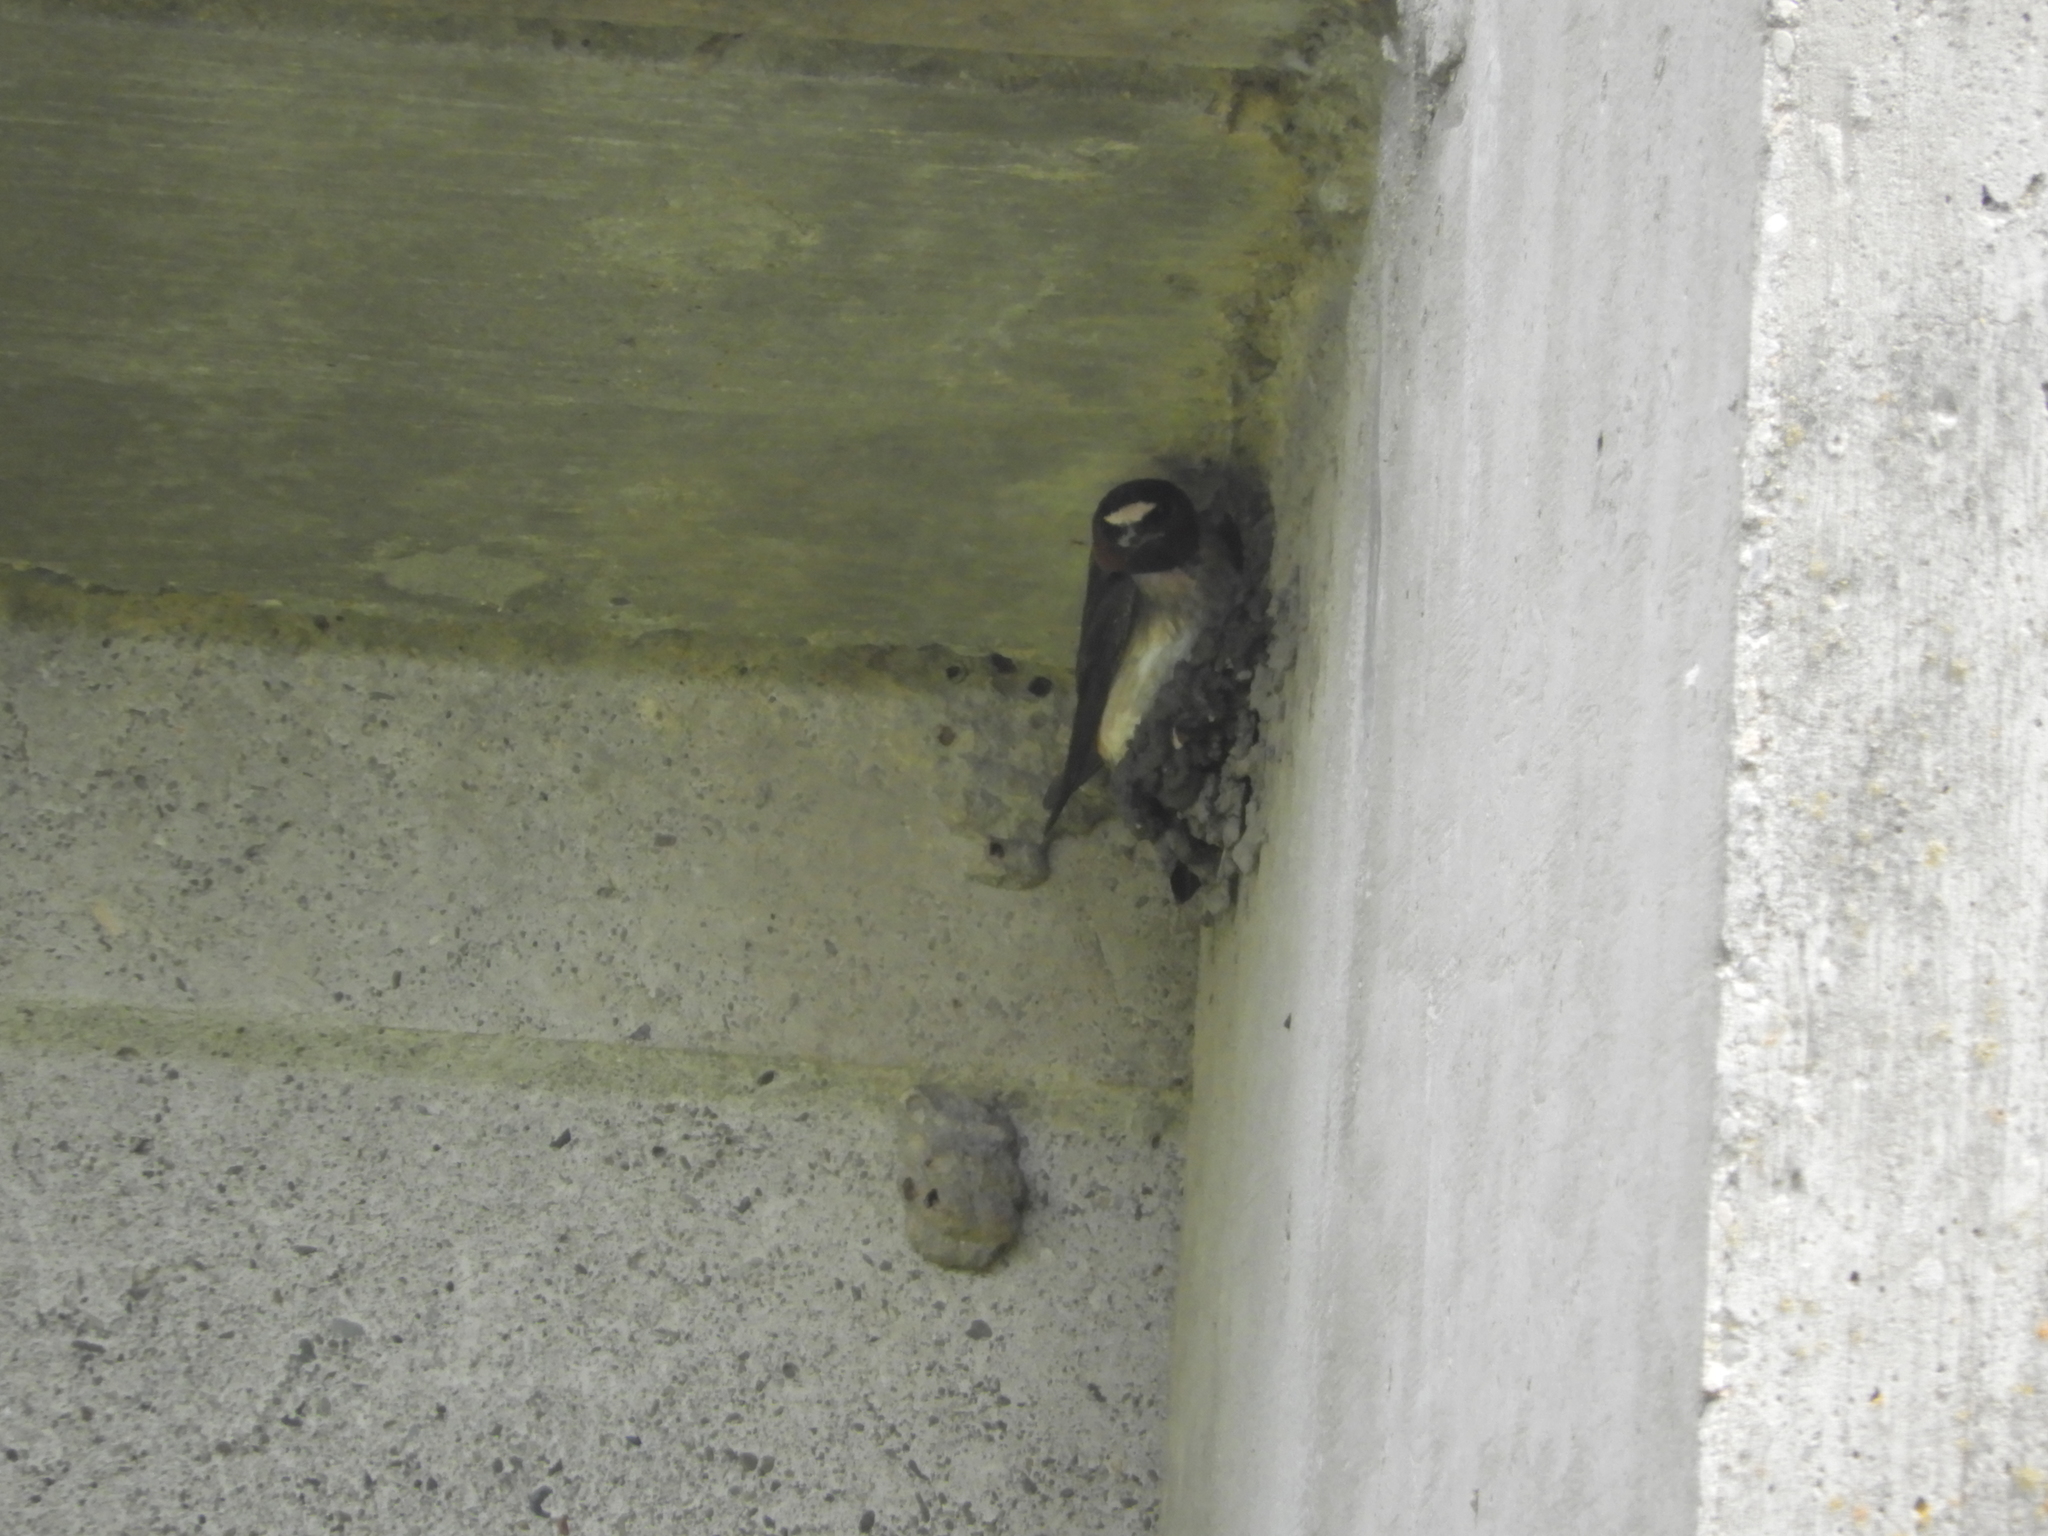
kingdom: Animalia
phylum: Chordata
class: Aves
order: Passeriformes
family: Hirundinidae
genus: Petrochelidon
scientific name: Petrochelidon pyrrhonota
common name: American cliff swallow
